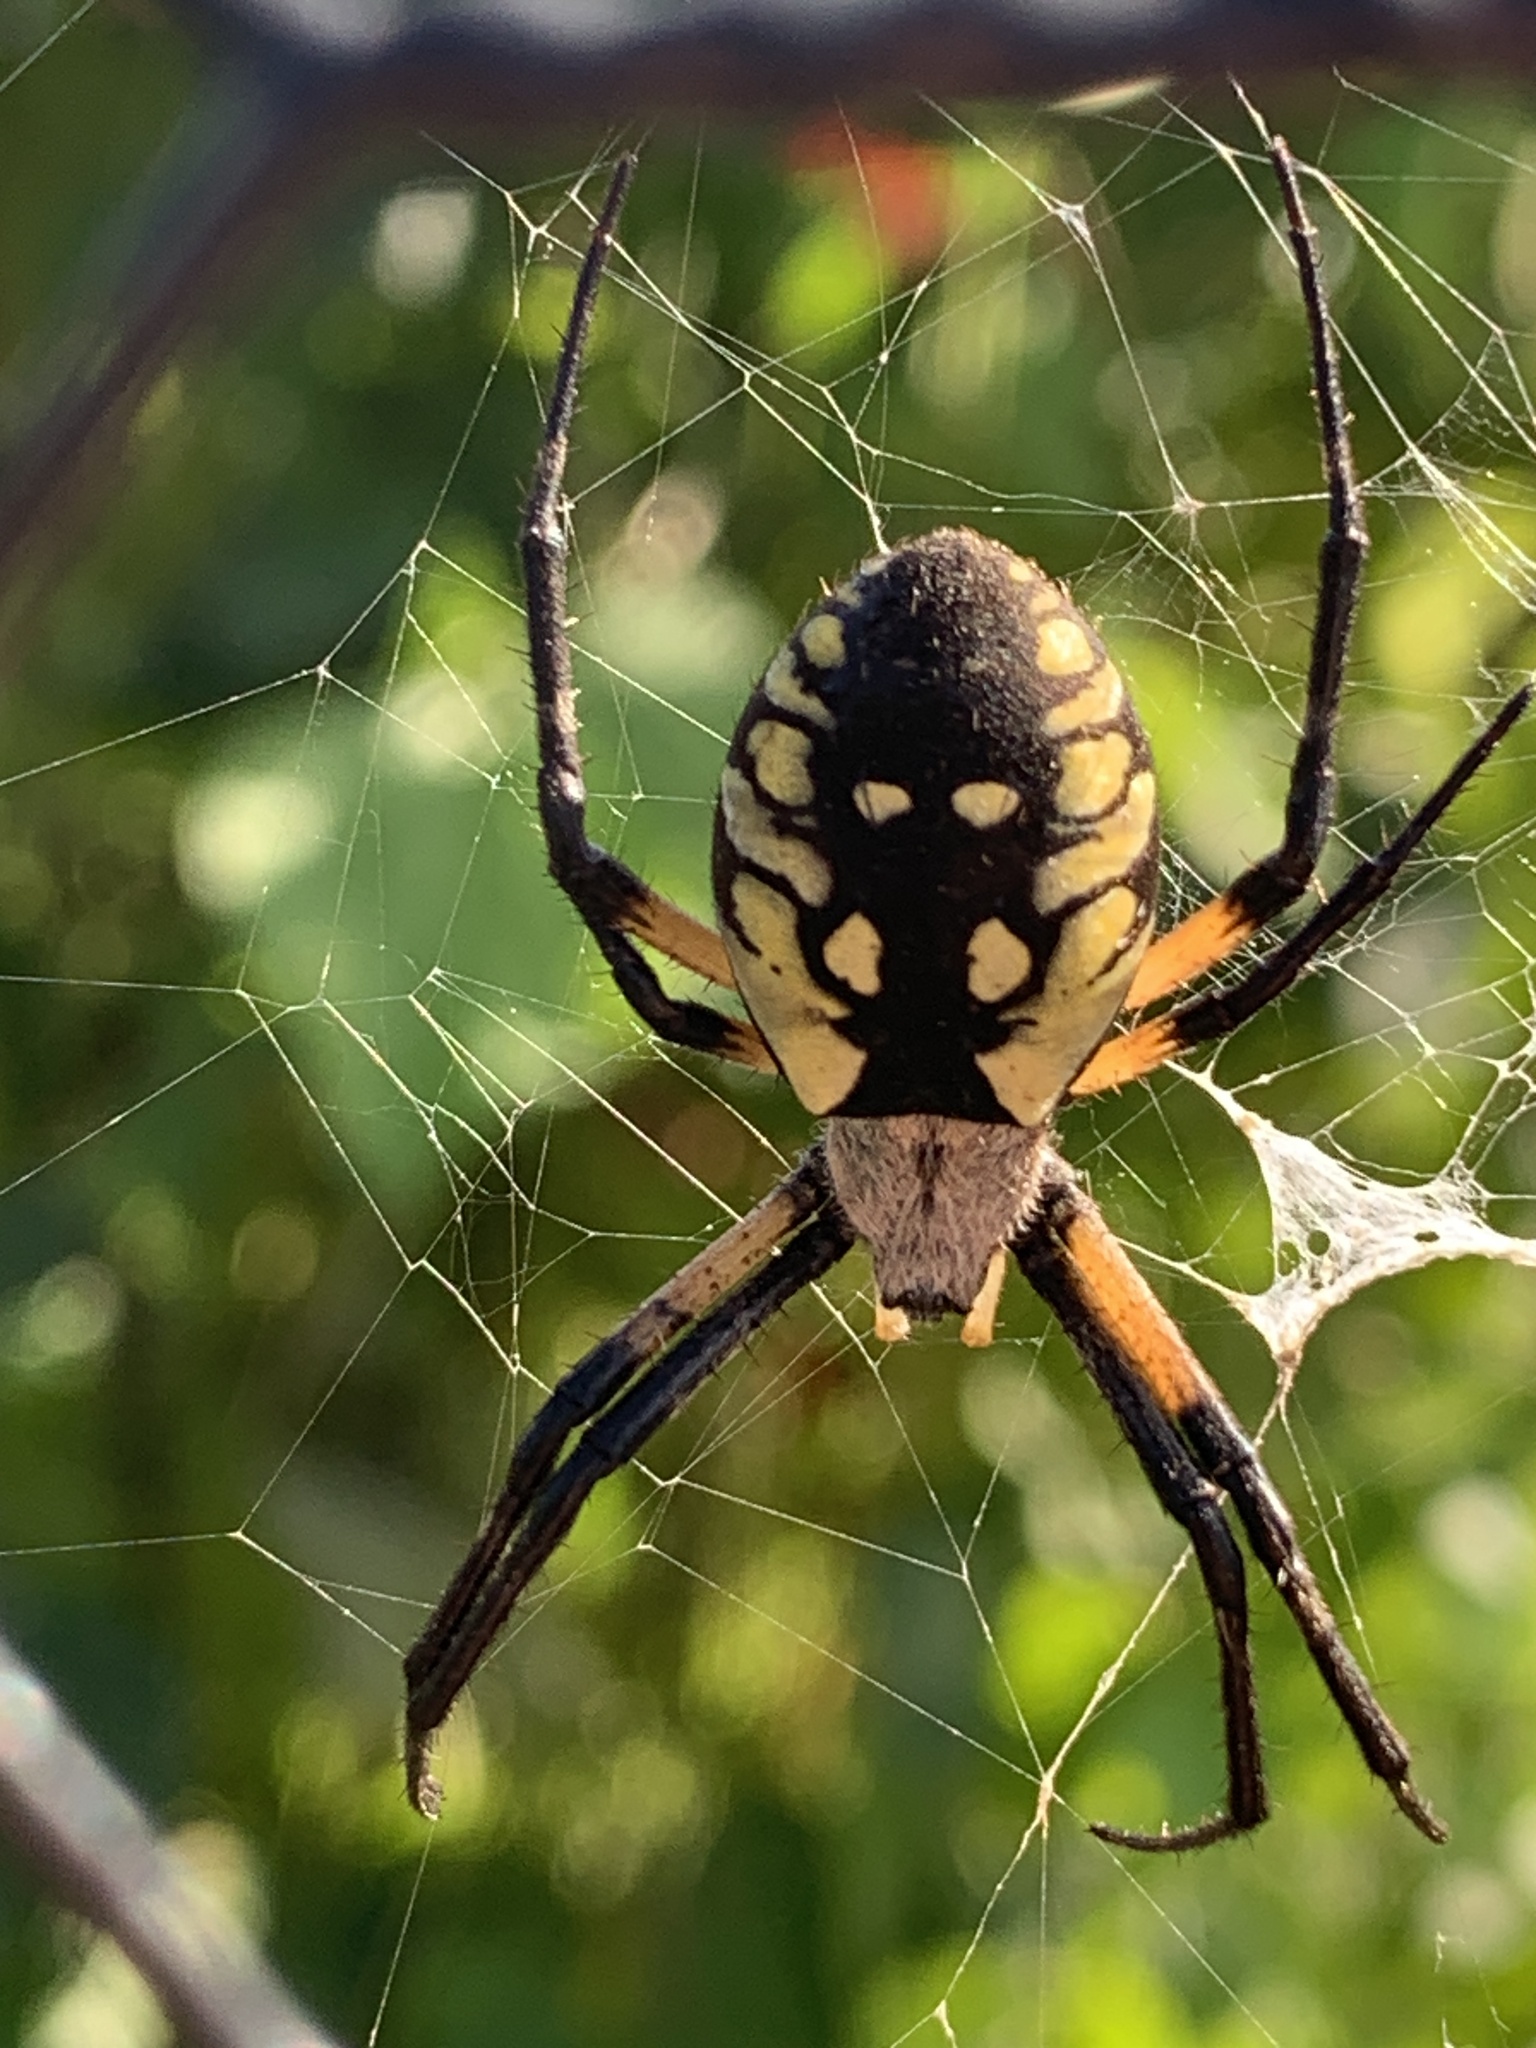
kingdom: Animalia
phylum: Arthropoda
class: Arachnida
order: Araneae
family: Araneidae
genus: Argiope
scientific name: Argiope aurantia
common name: Orb weavers
